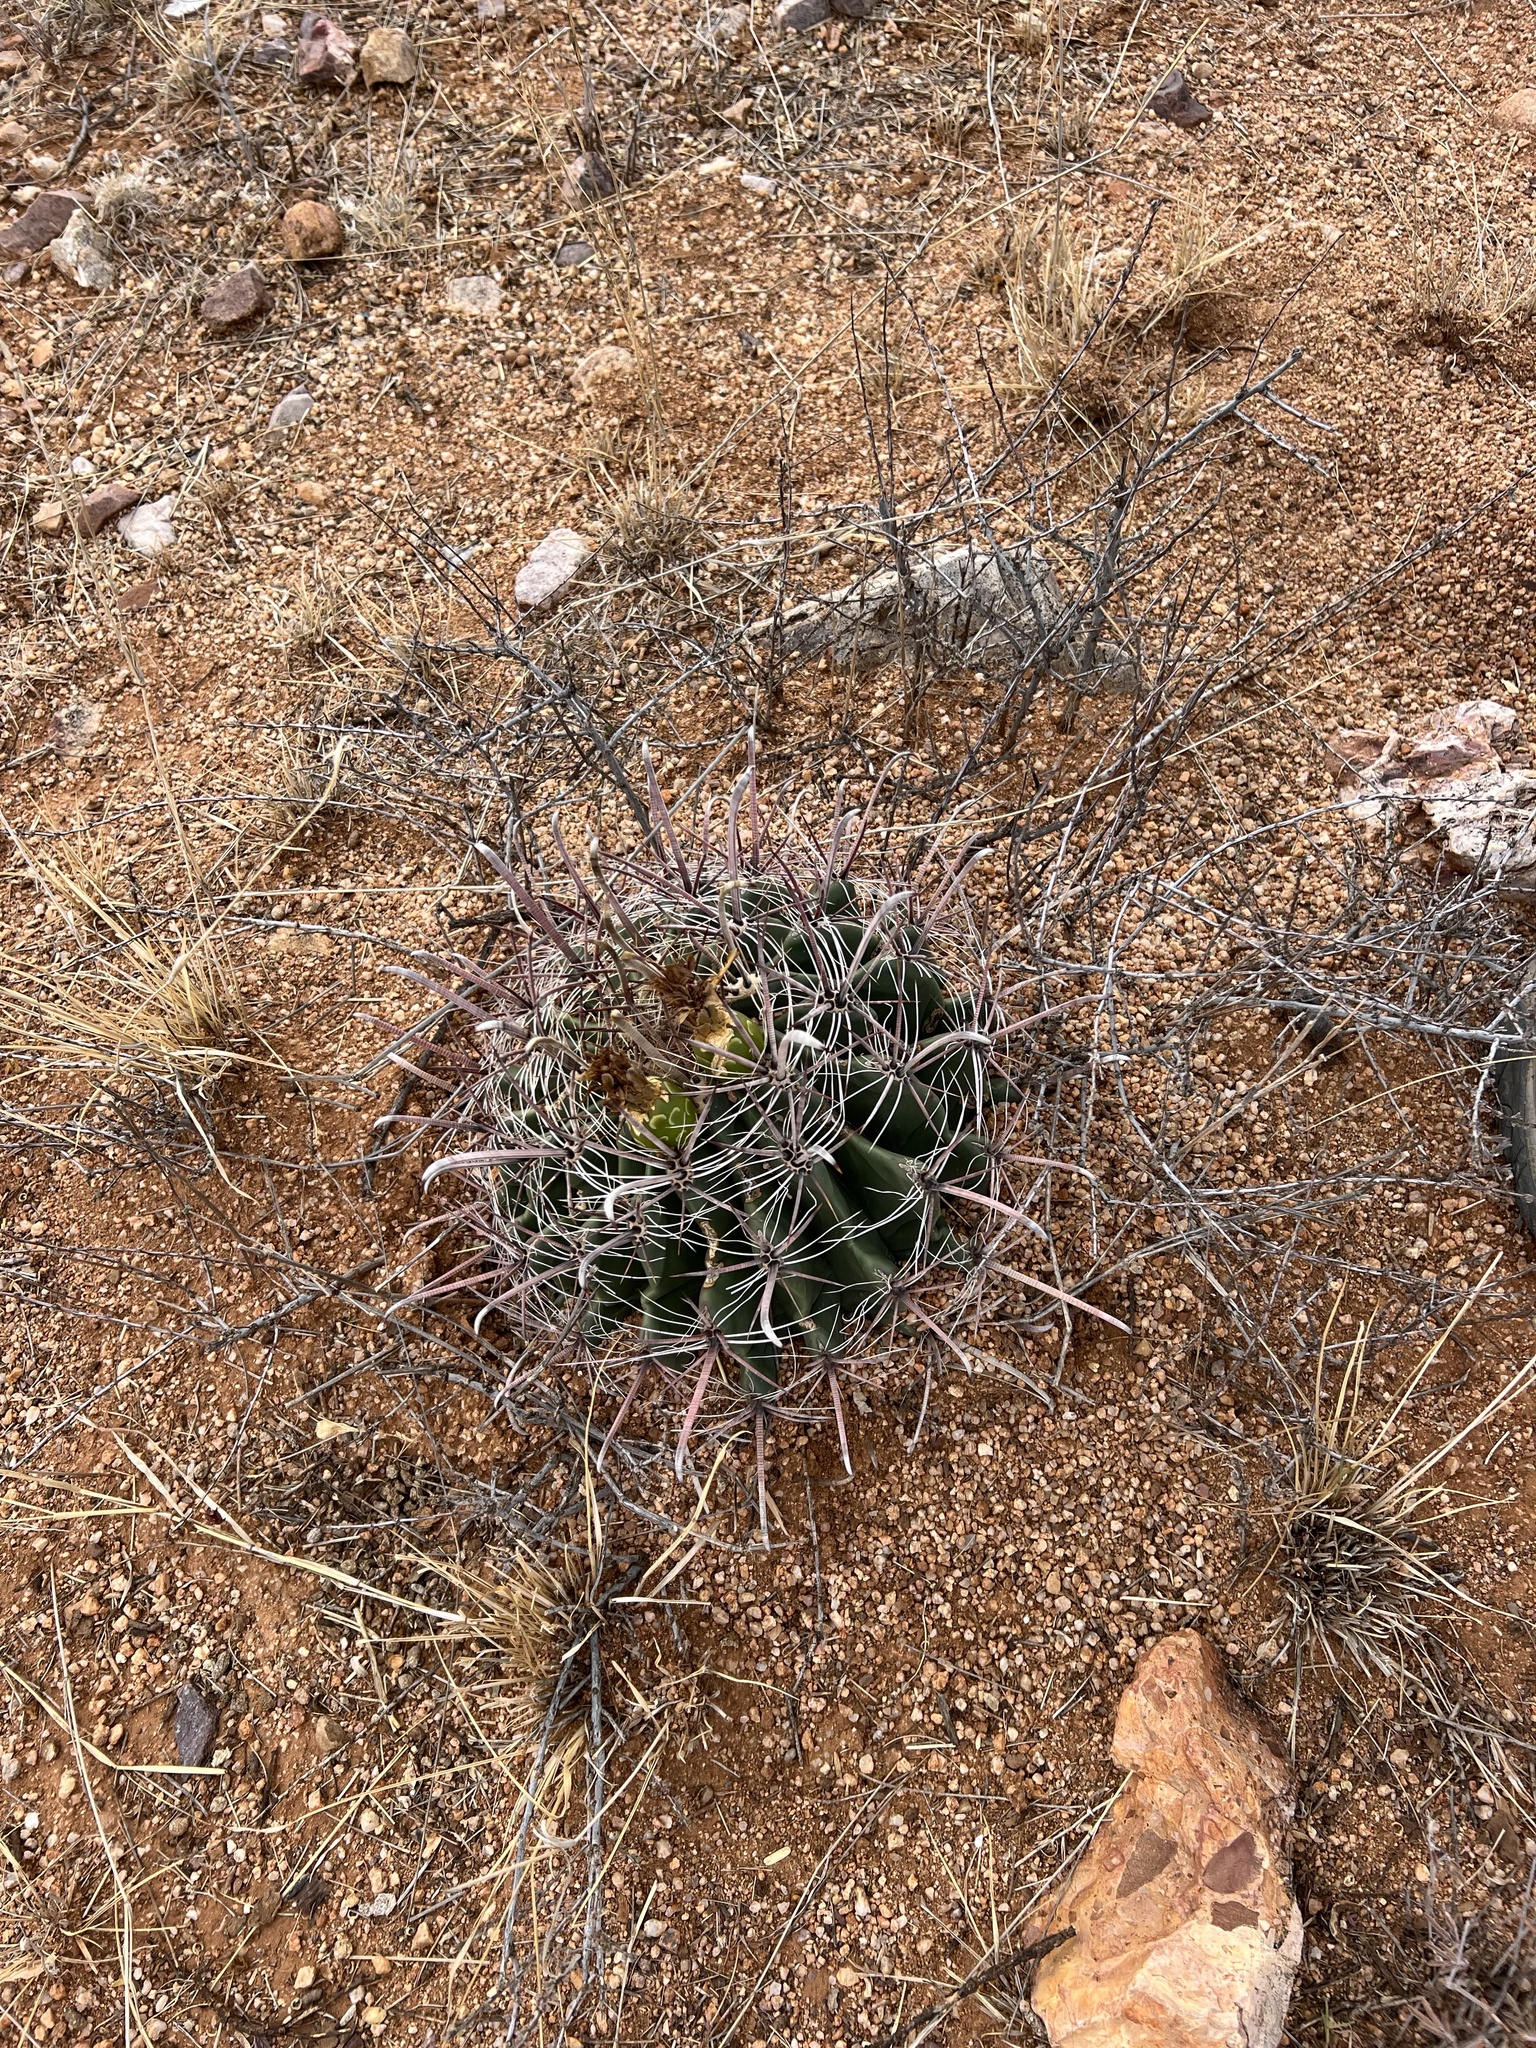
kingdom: Plantae
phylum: Tracheophyta
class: Magnoliopsida
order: Caryophyllales
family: Cactaceae
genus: Ferocactus
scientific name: Ferocactus wislizeni
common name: Candy barrel cactus
